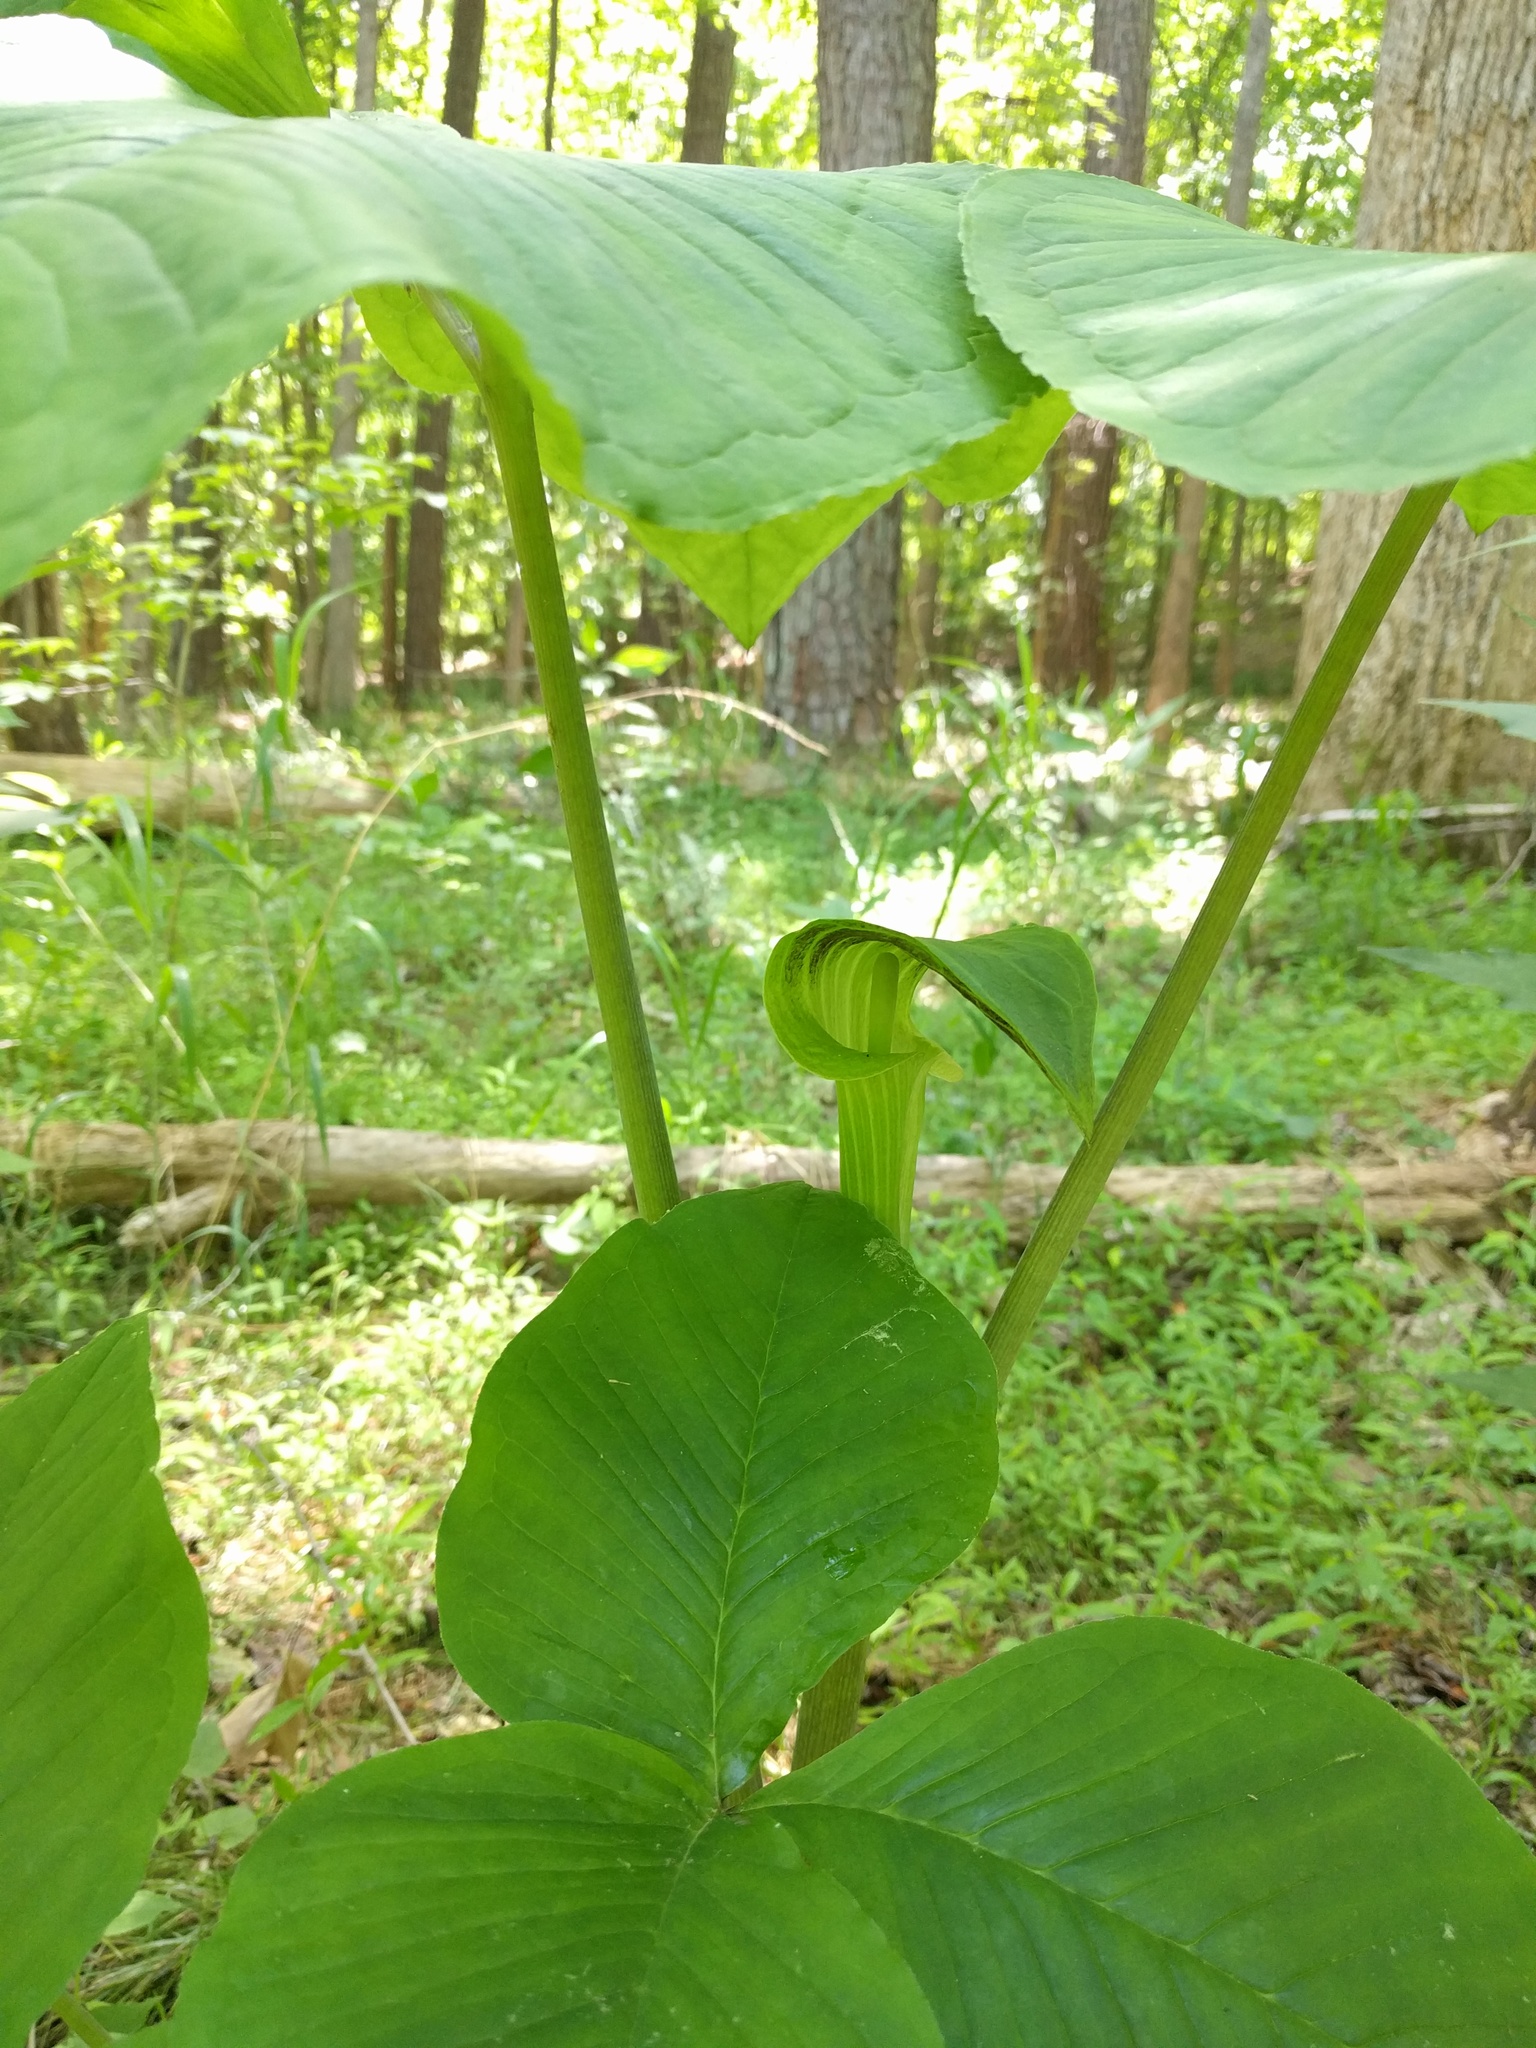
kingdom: Plantae
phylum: Tracheophyta
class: Liliopsida
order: Alismatales
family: Araceae
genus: Arisaema
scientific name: Arisaema triphyllum
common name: Jack-in-the-pulpit
